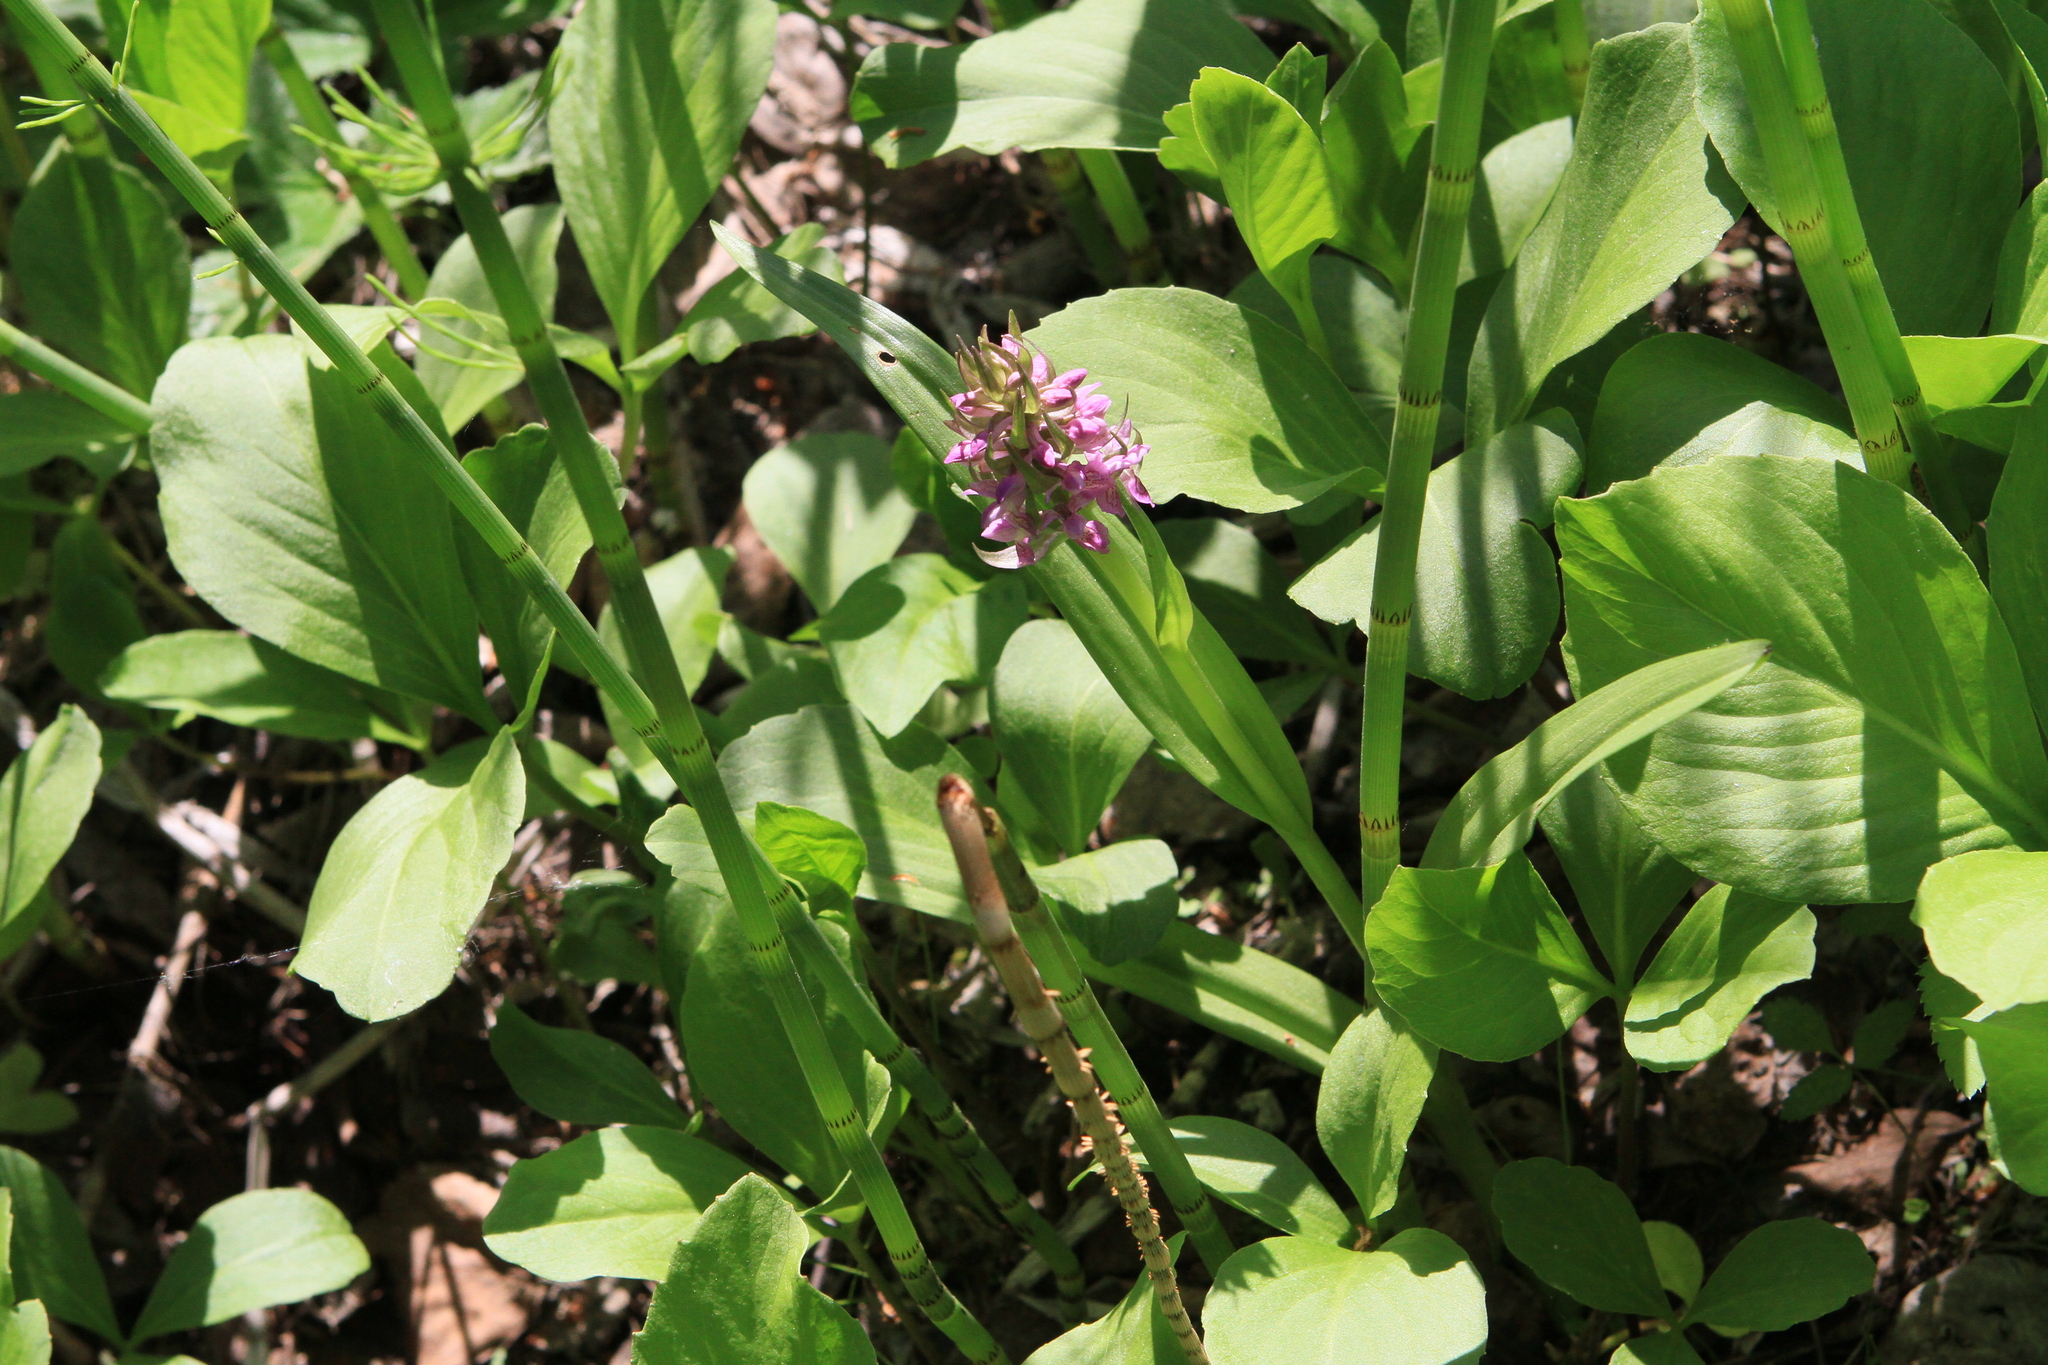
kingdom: Plantae
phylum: Tracheophyta
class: Magnoliopsida
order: Asterales
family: Menyanthaceae
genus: Menyanthes
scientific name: Menyanthes trifoliata
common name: Bogbean
